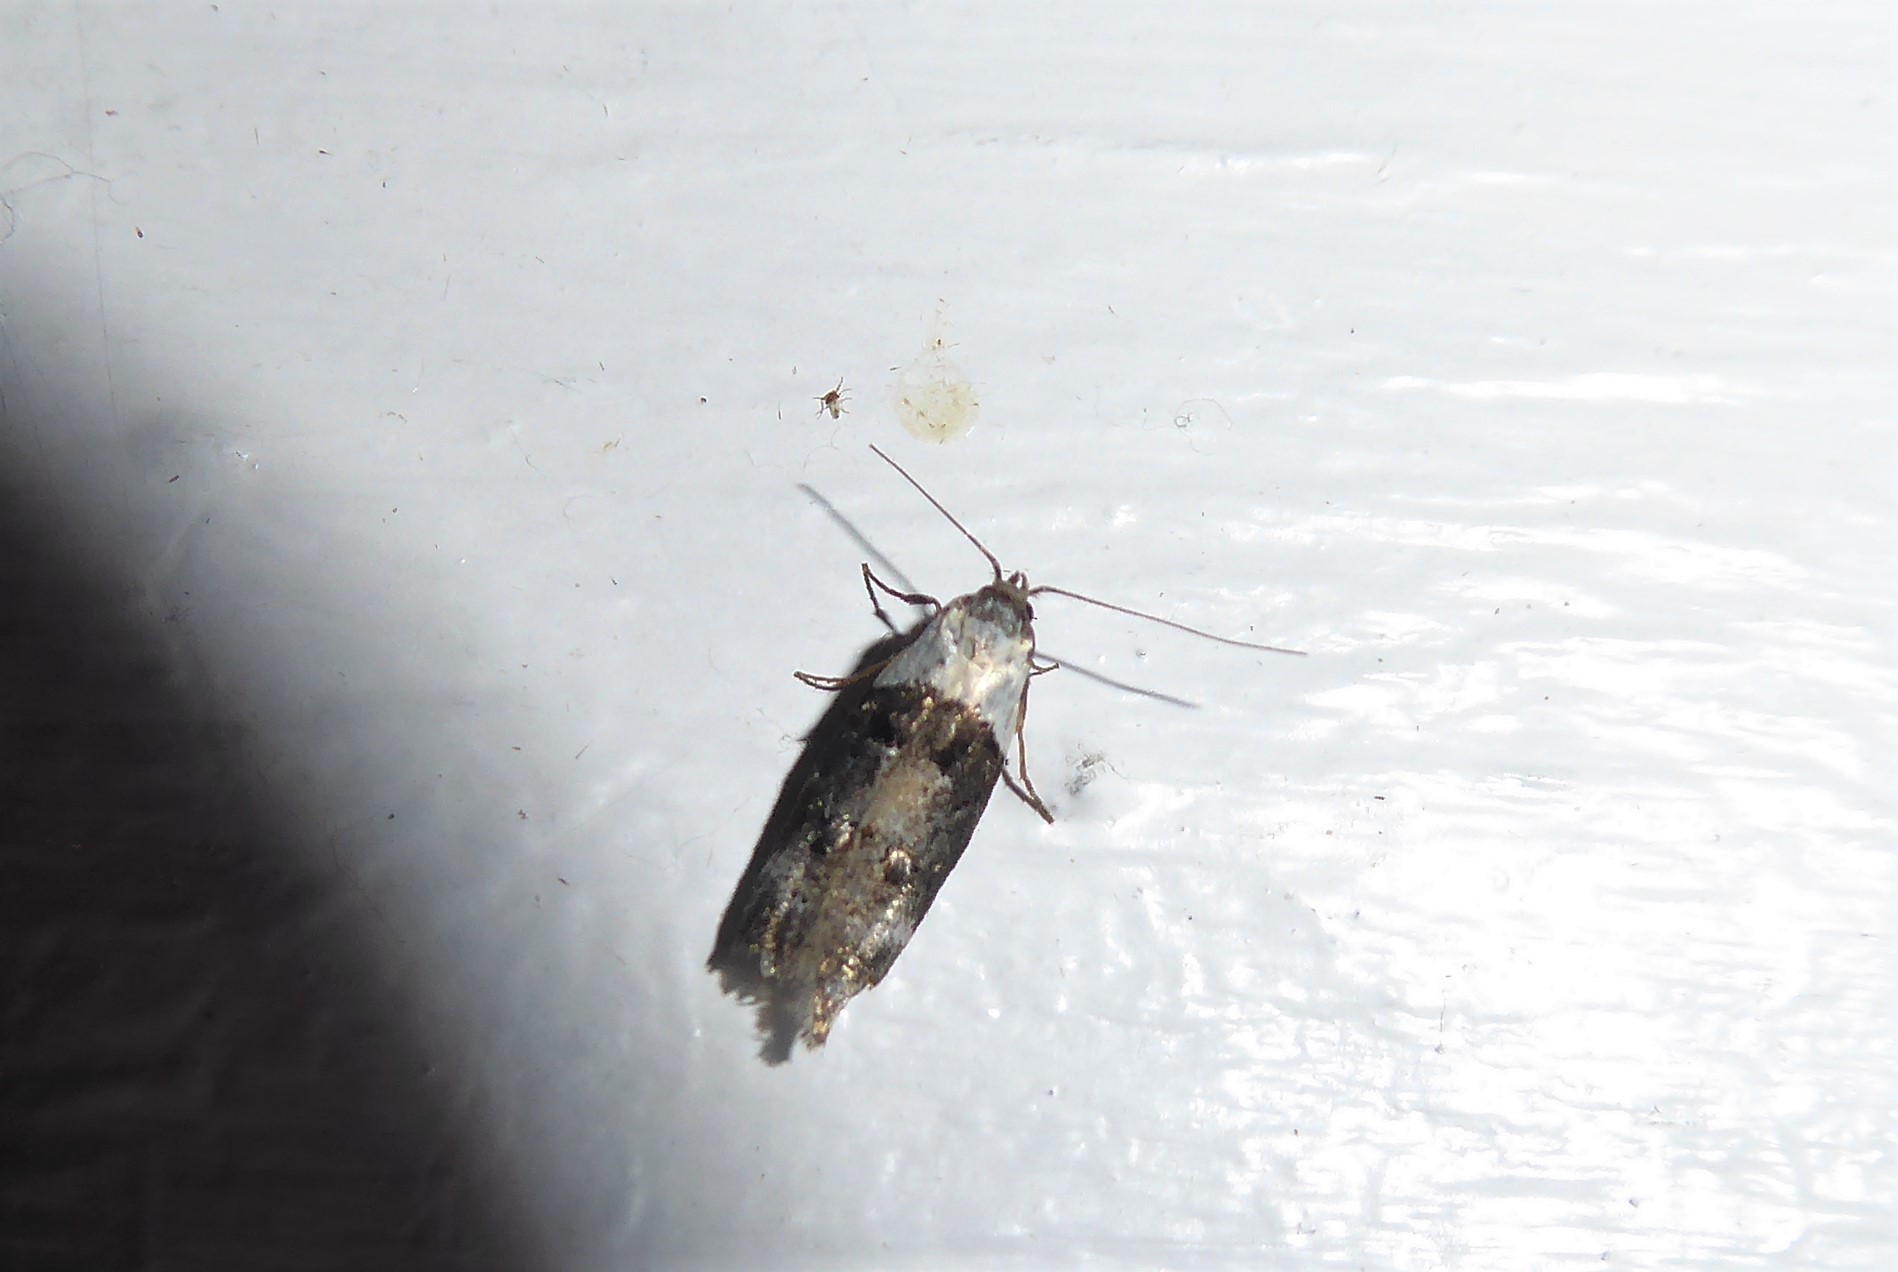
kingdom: Animalia
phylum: Arthropoda
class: Insecta
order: Lepidoptera
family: Oecophoridae
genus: Trachypepla
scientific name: Trachypepla conspicuella
